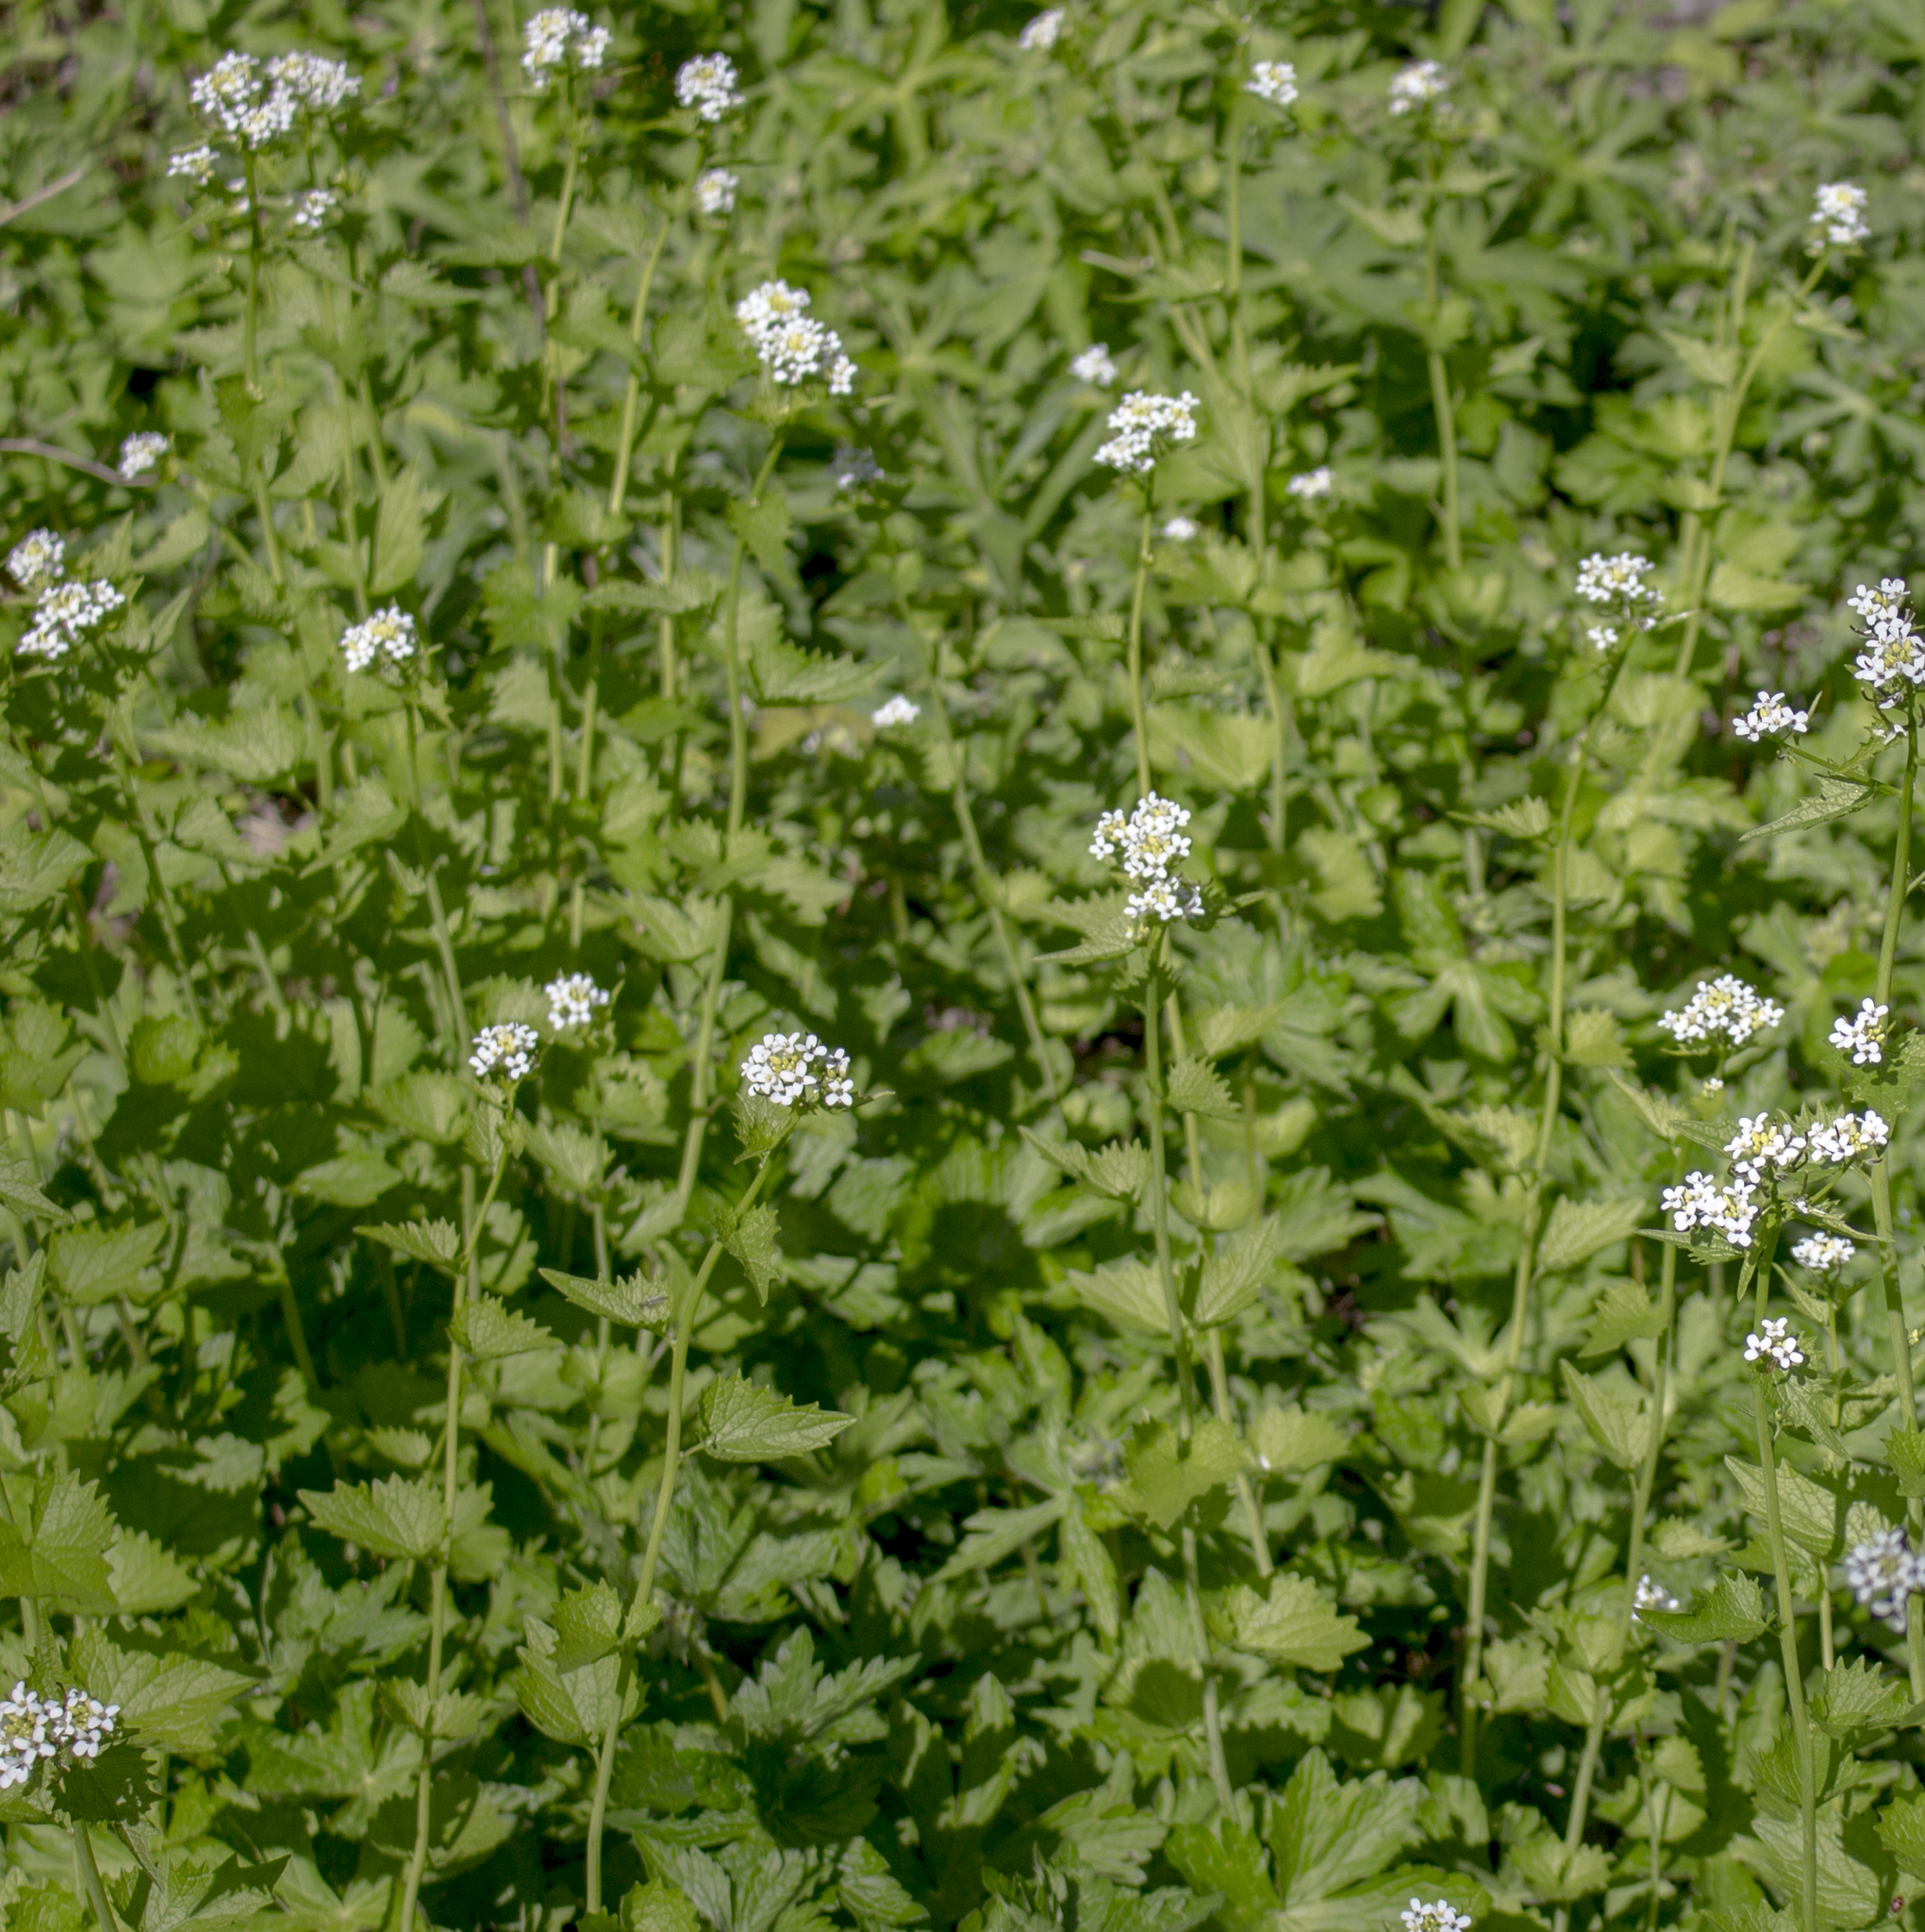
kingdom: Plantae
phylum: Tracheophyta
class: Magnoliopsida
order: Brassicales
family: Brassicaceae
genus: Alliaria
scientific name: Alliaria petiolata
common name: Garlic mustard
